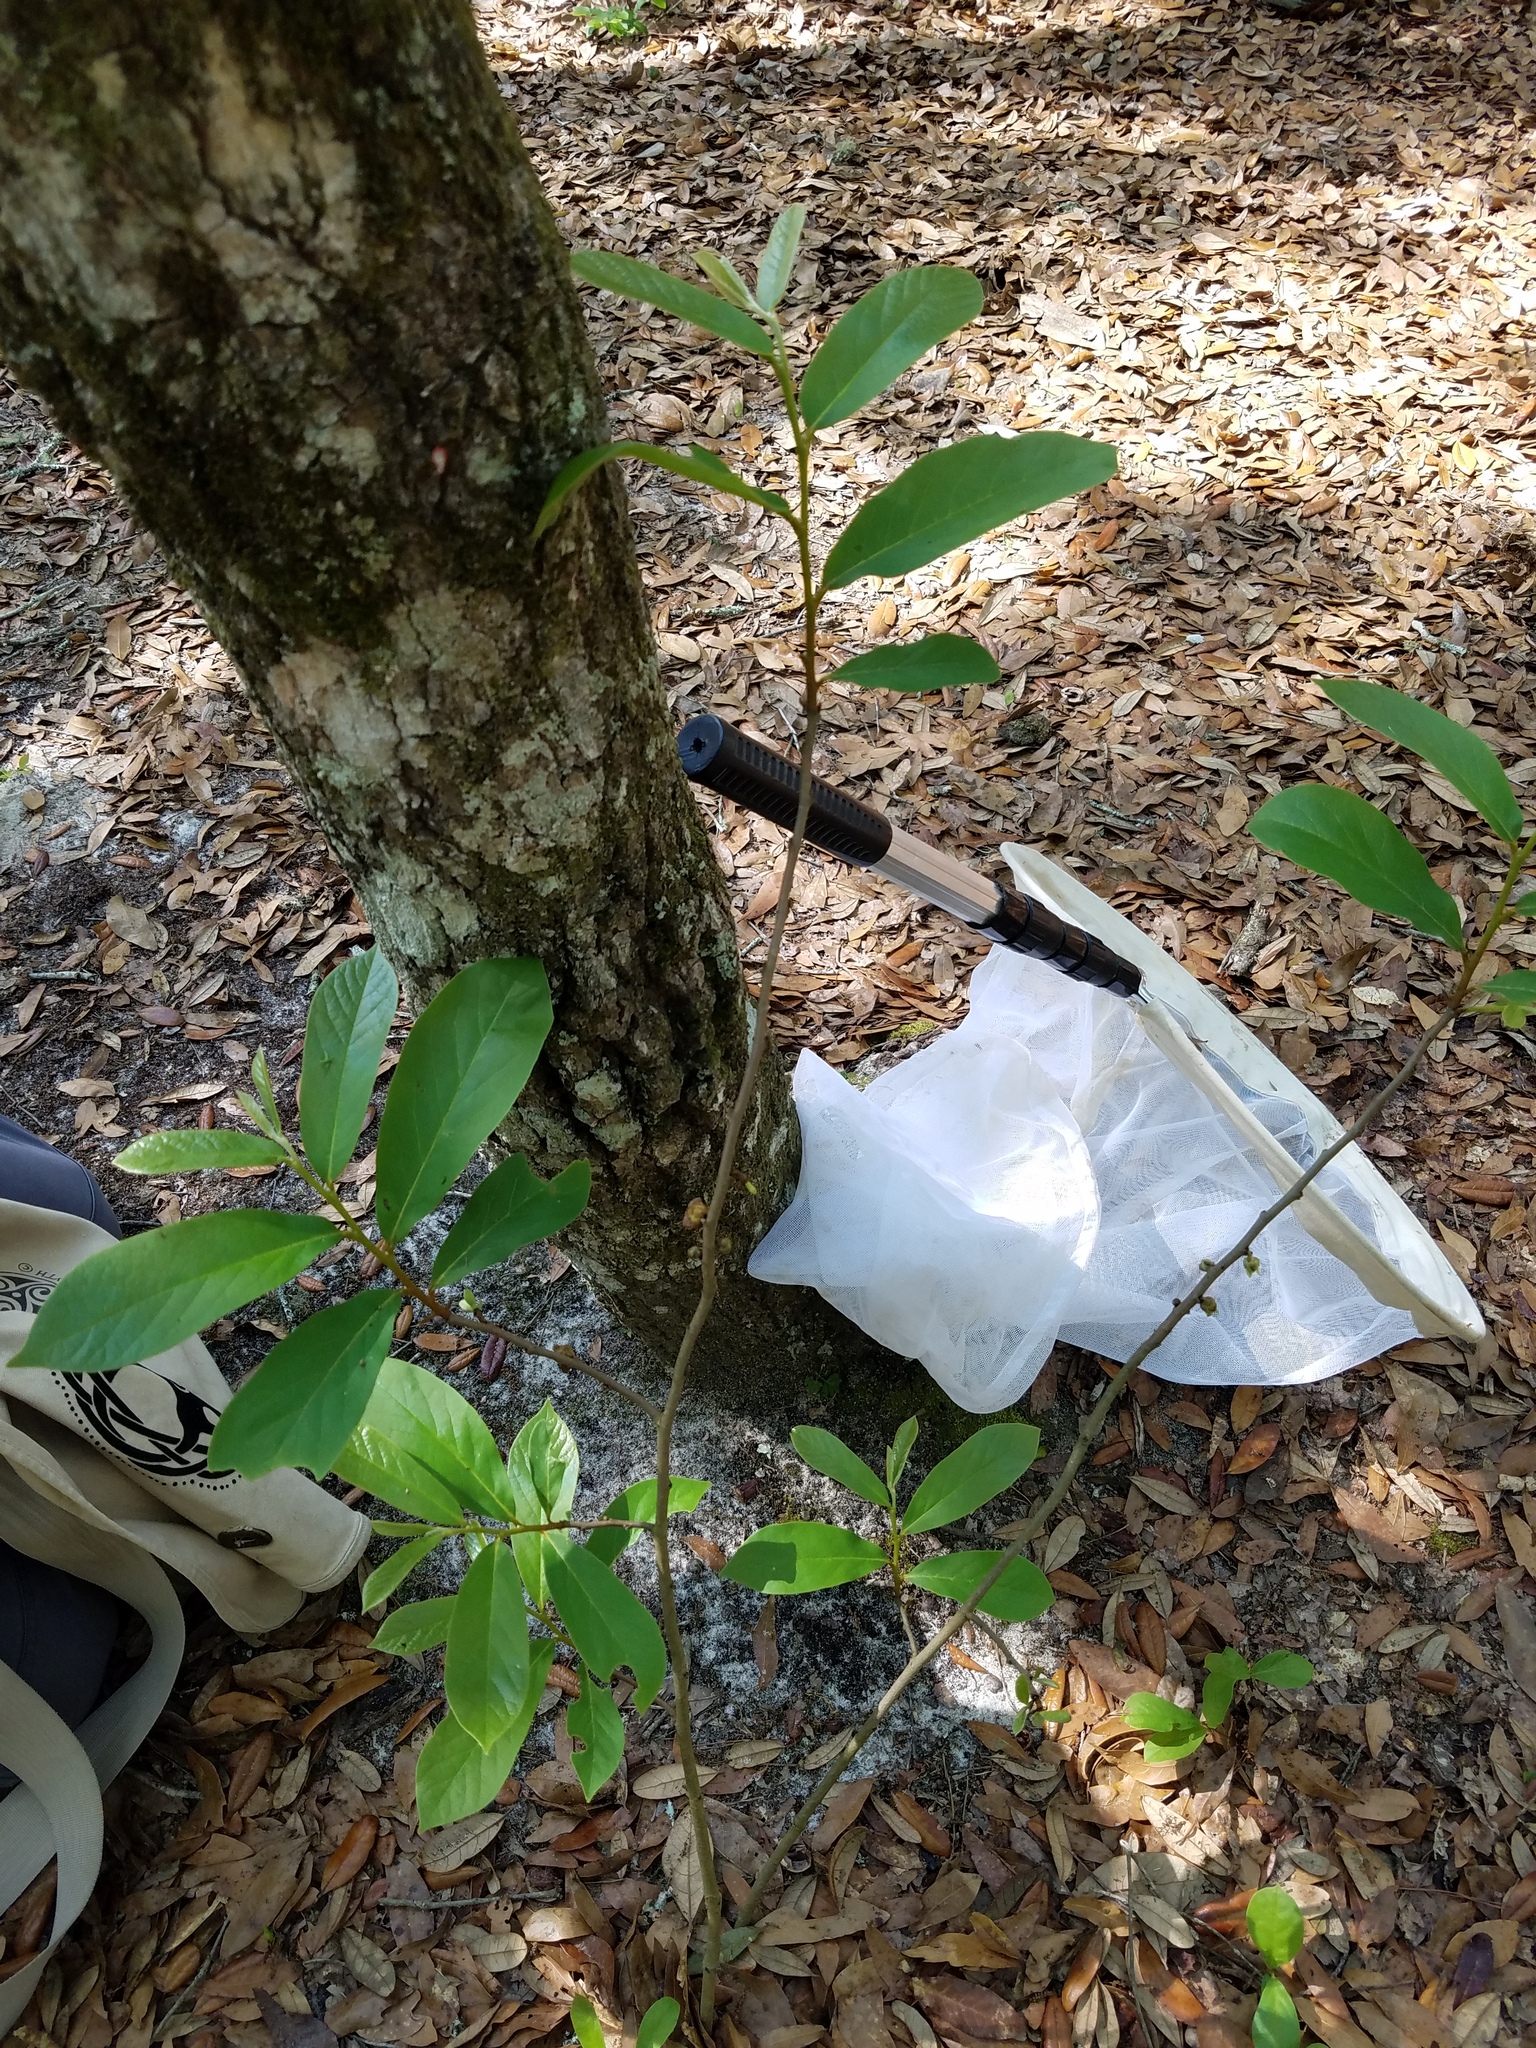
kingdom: Plantae
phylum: Tracheophyta
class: Magnoliopsida
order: Magnoliales
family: Annonaceae
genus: Asimina
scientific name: Asimina parviflora
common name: Dwarf pawpaw
